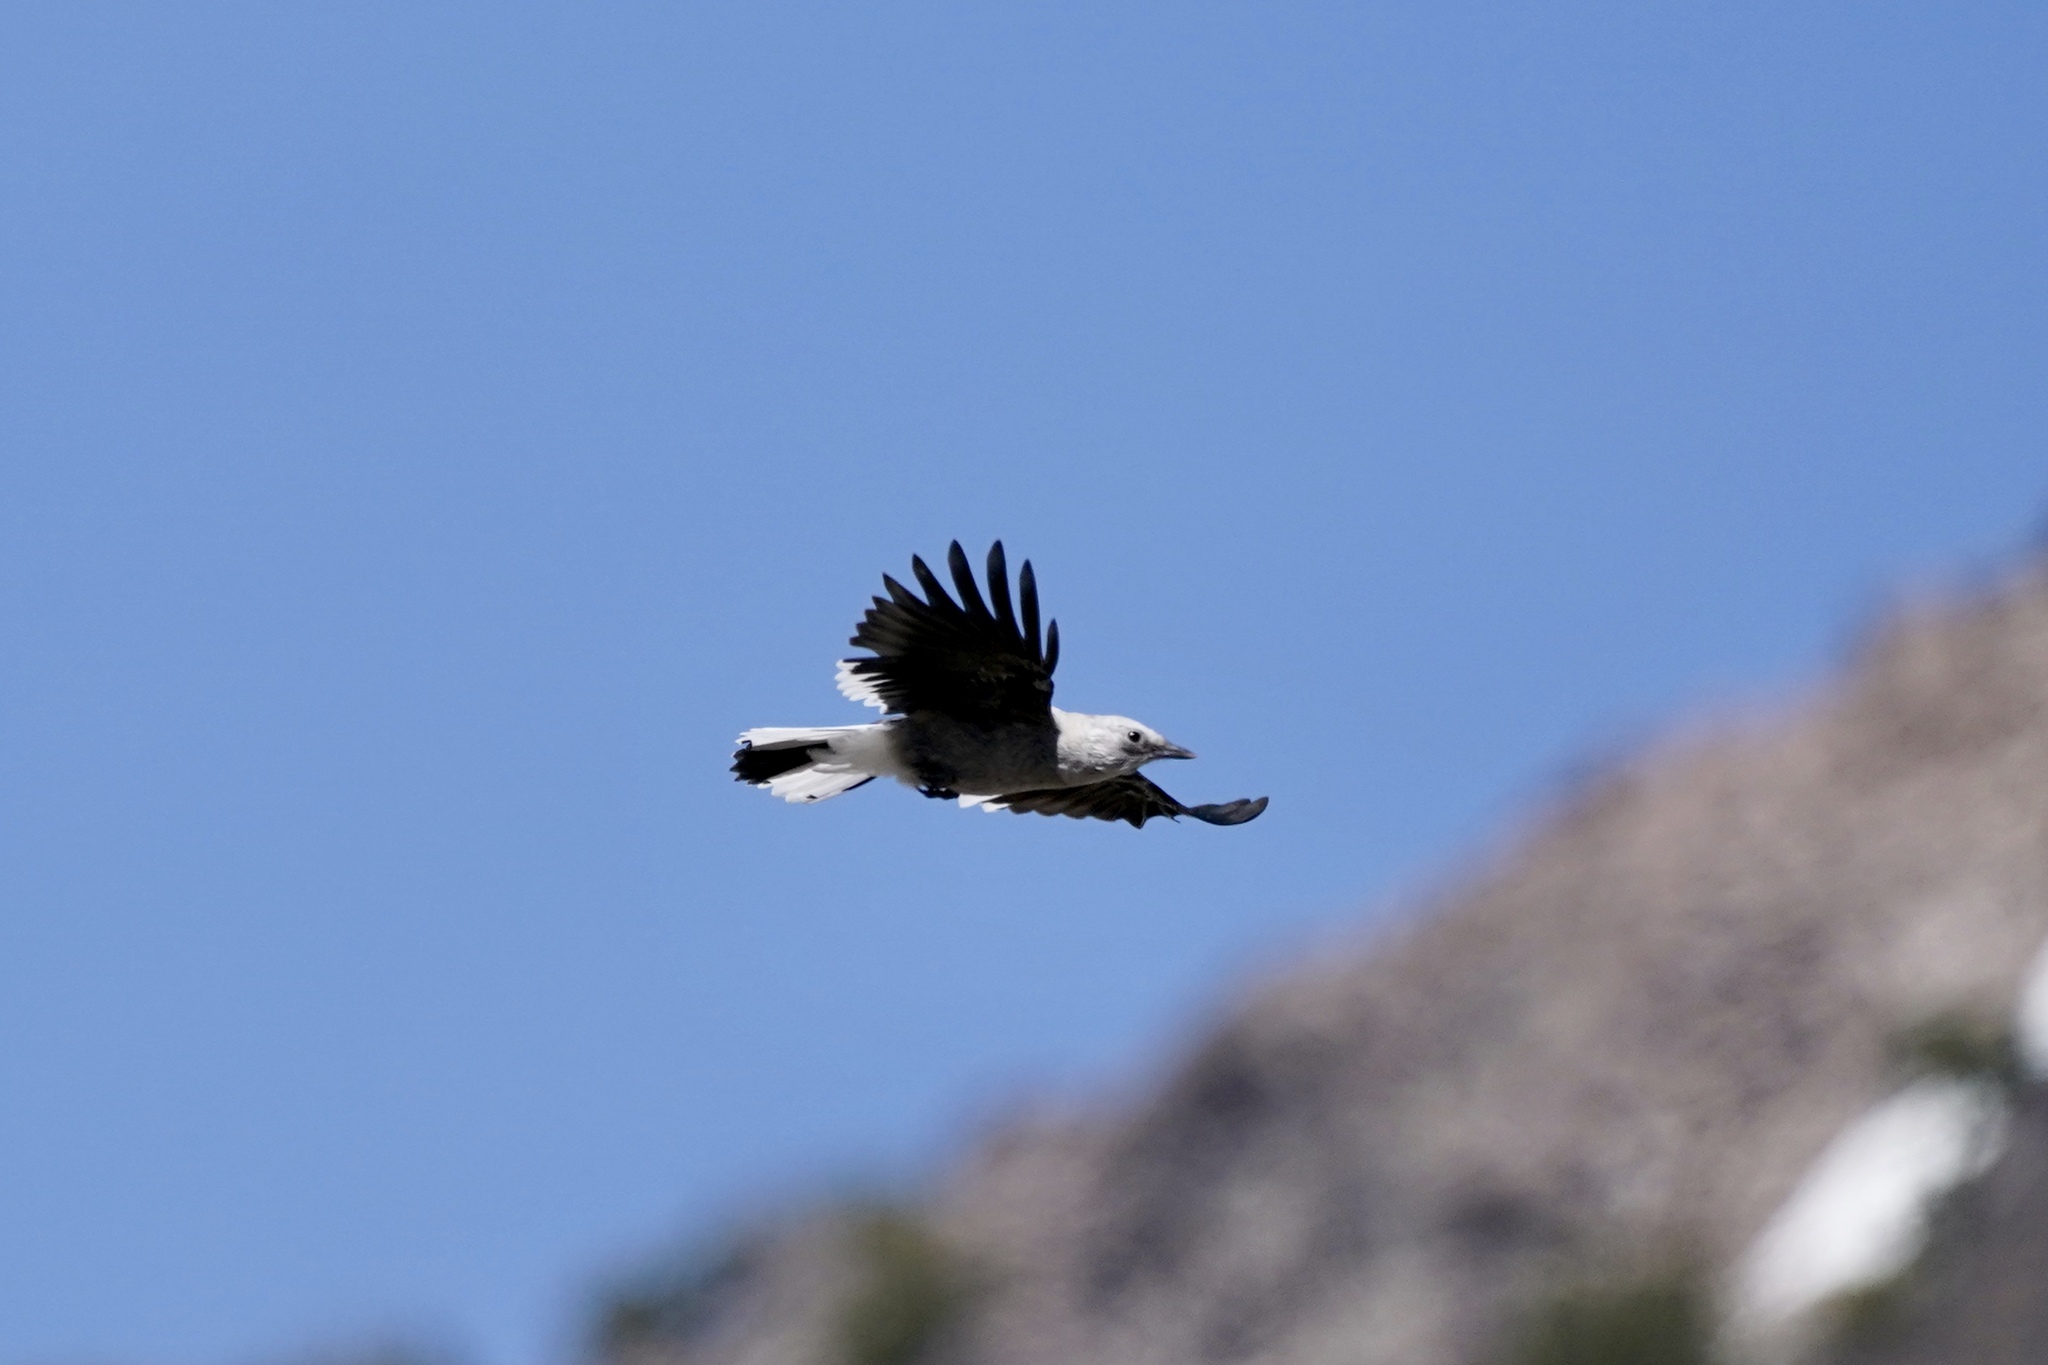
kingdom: Animalia
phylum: Chordata
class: Aves
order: Passeriformes
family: Corvidae
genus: Nucifraga
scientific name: Nucifraga columbiana
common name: Clark's nutcracker
